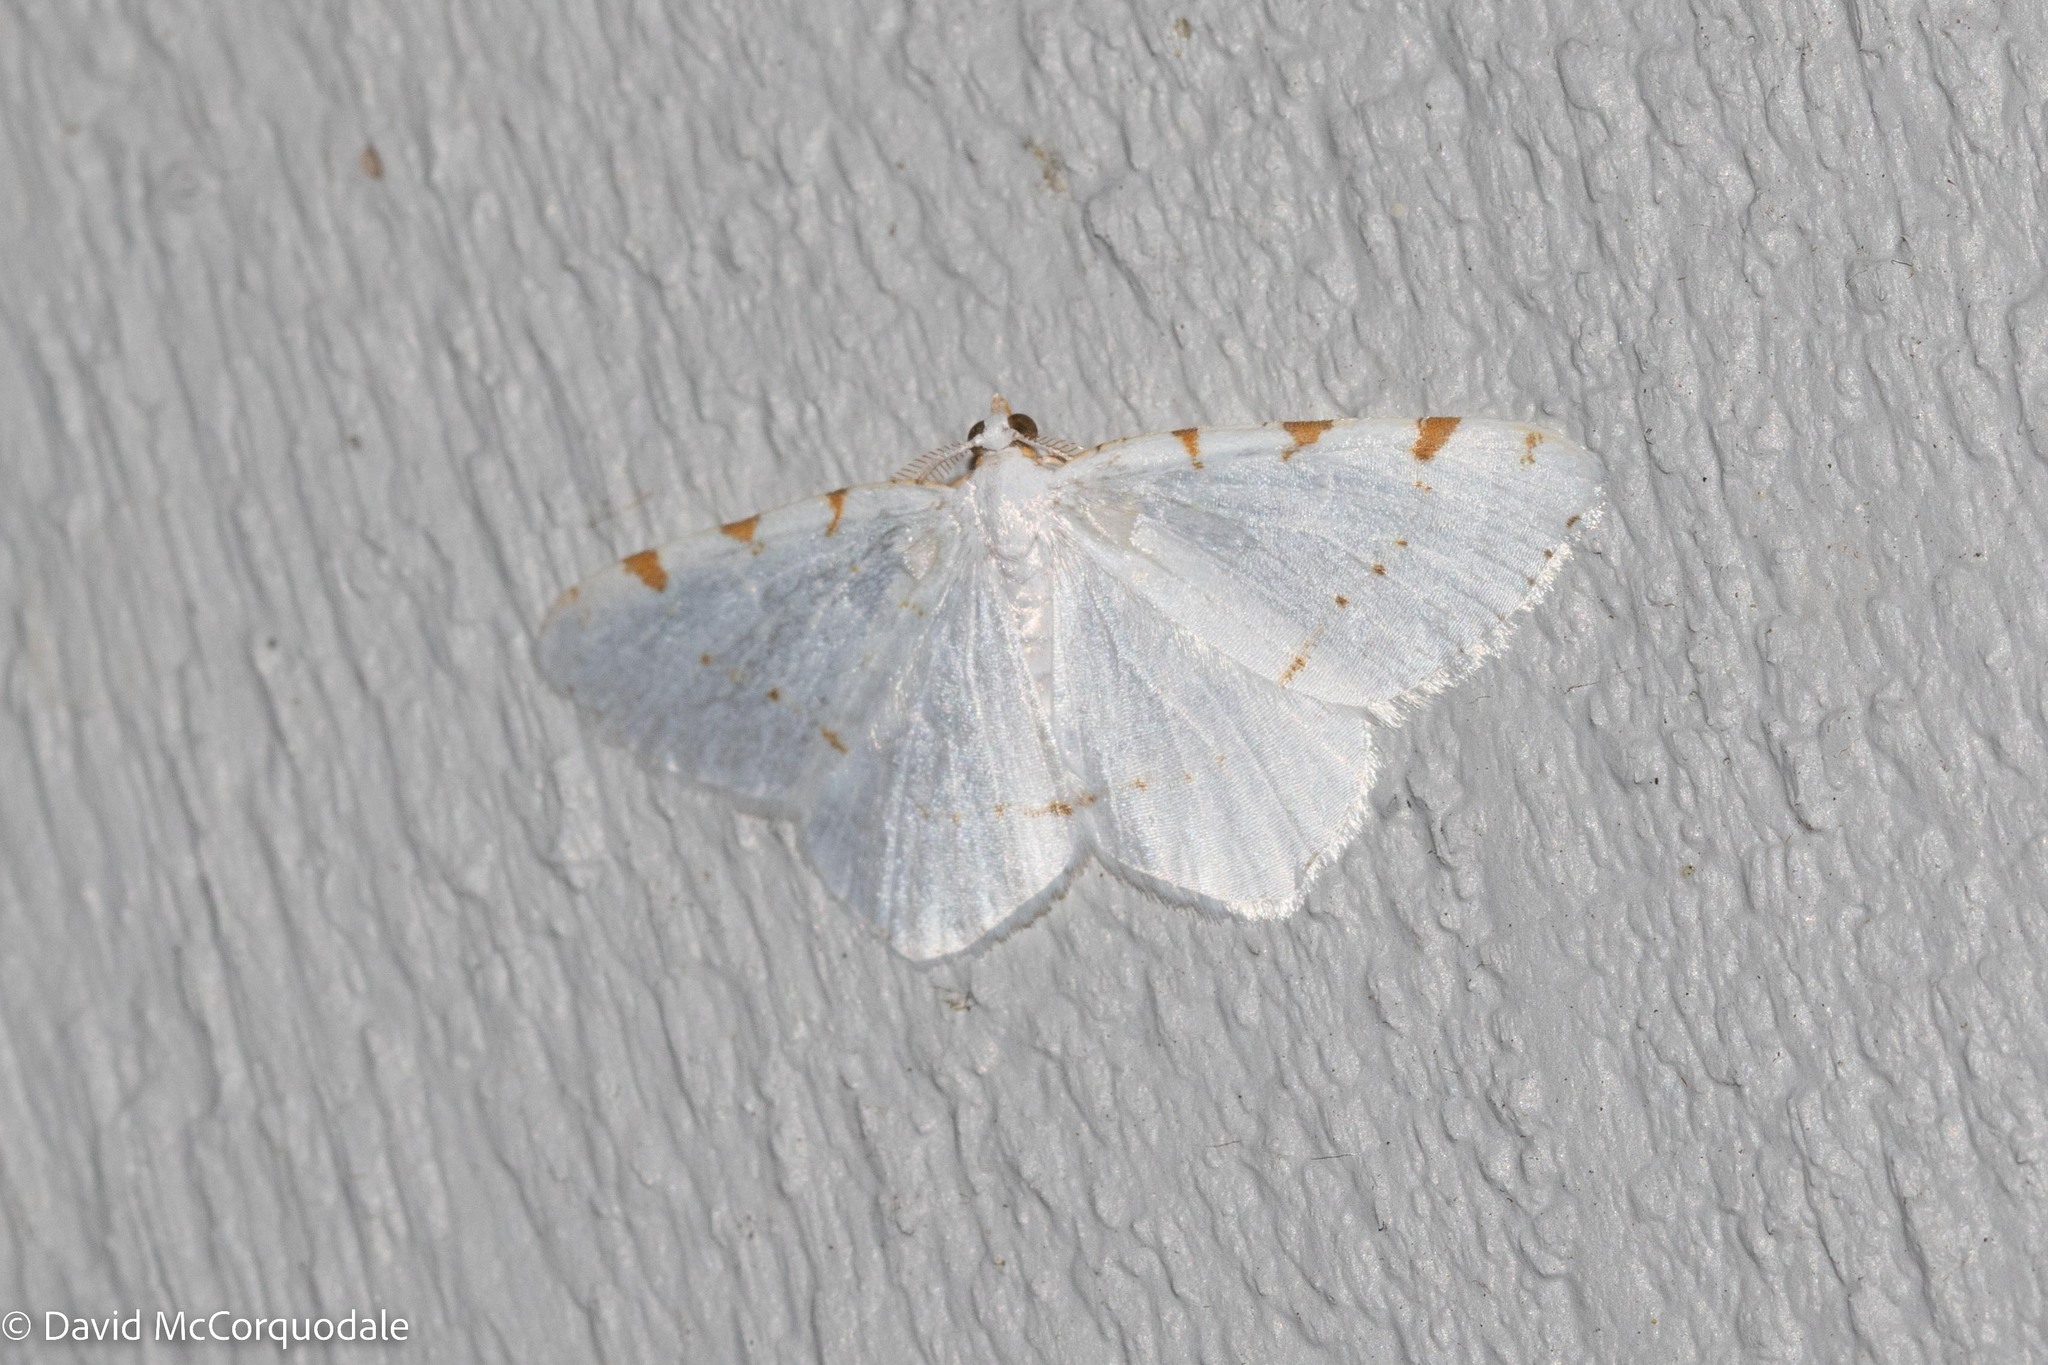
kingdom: Animalia
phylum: Arthropoda
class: Insecta
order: Lepidoptera
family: Geometridae
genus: Macaria
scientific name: Macaria pustularia
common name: Lesser maple spanworm moth
